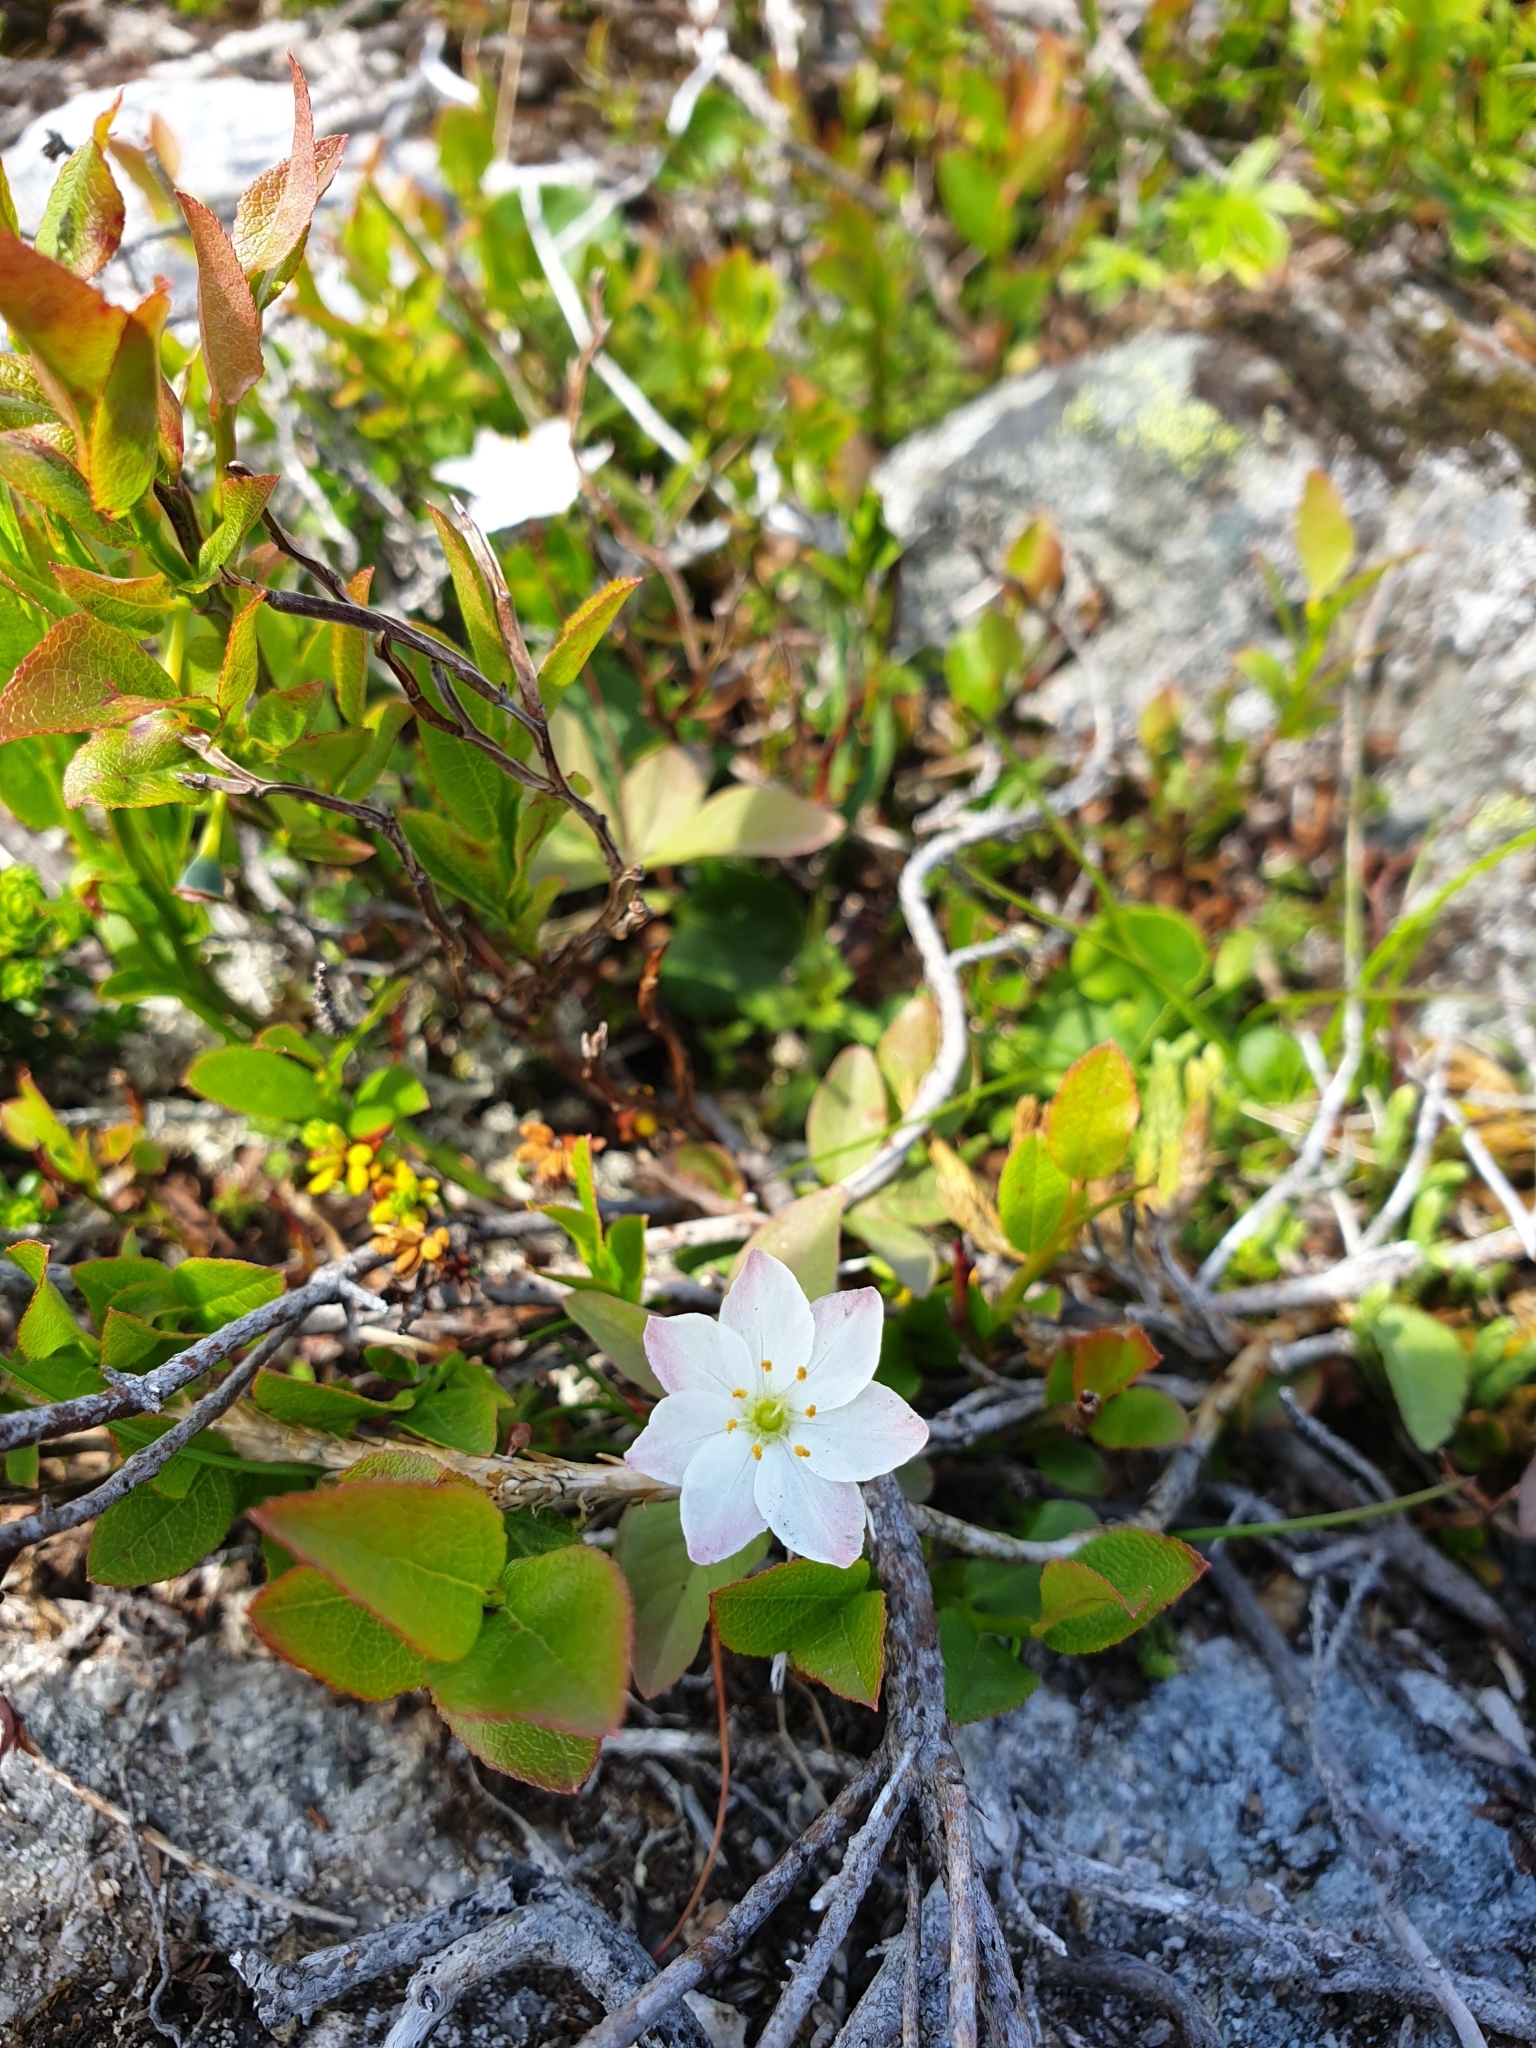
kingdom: Plantae
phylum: Tracheophyta
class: Magnoliopsida
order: Ericales
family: Primulaceae
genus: Lysimachia
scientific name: Lysimachia europaea
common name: Arctic starflower
